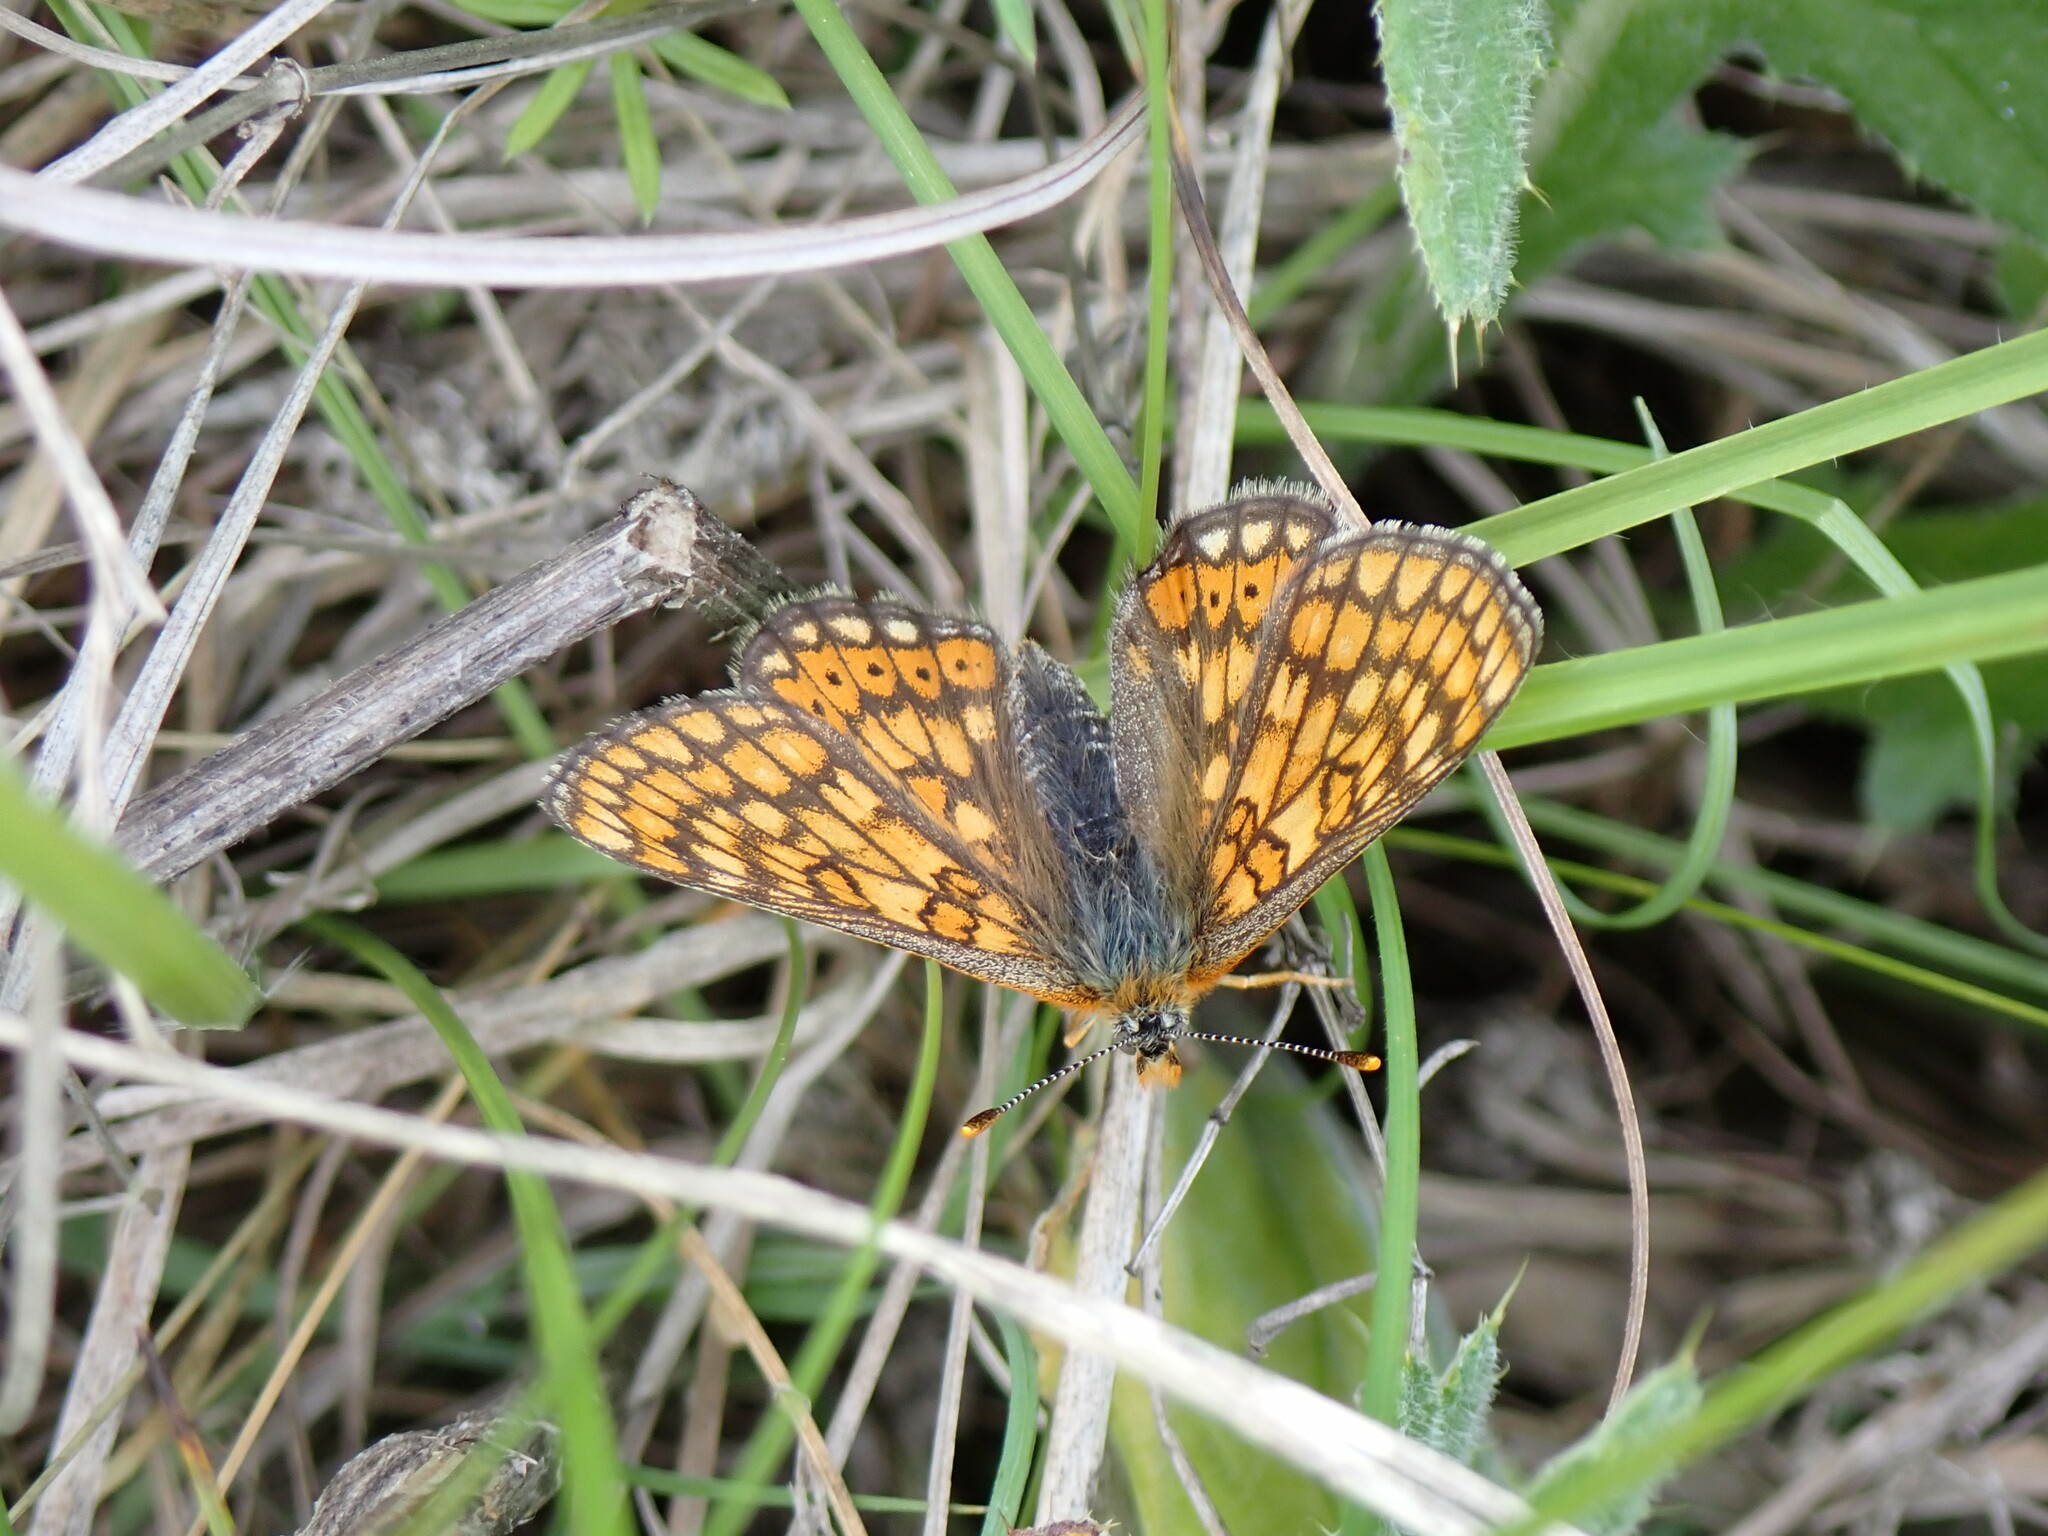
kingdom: Animalia
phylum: Arthropoda
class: Insecta
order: Lepidoptera
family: Nymphalidae
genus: Euphydryas
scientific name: Euphydryas aurinia
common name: Marsh fritillary
